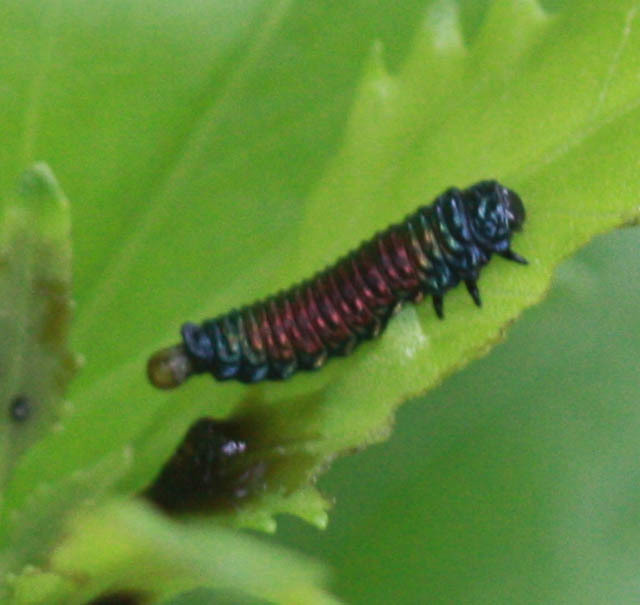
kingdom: Animalia
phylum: Arthropoda
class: Insecta
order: Coleoptera
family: Chrysomelidae
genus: Trirhabda
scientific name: Trirhabda bacharidis
